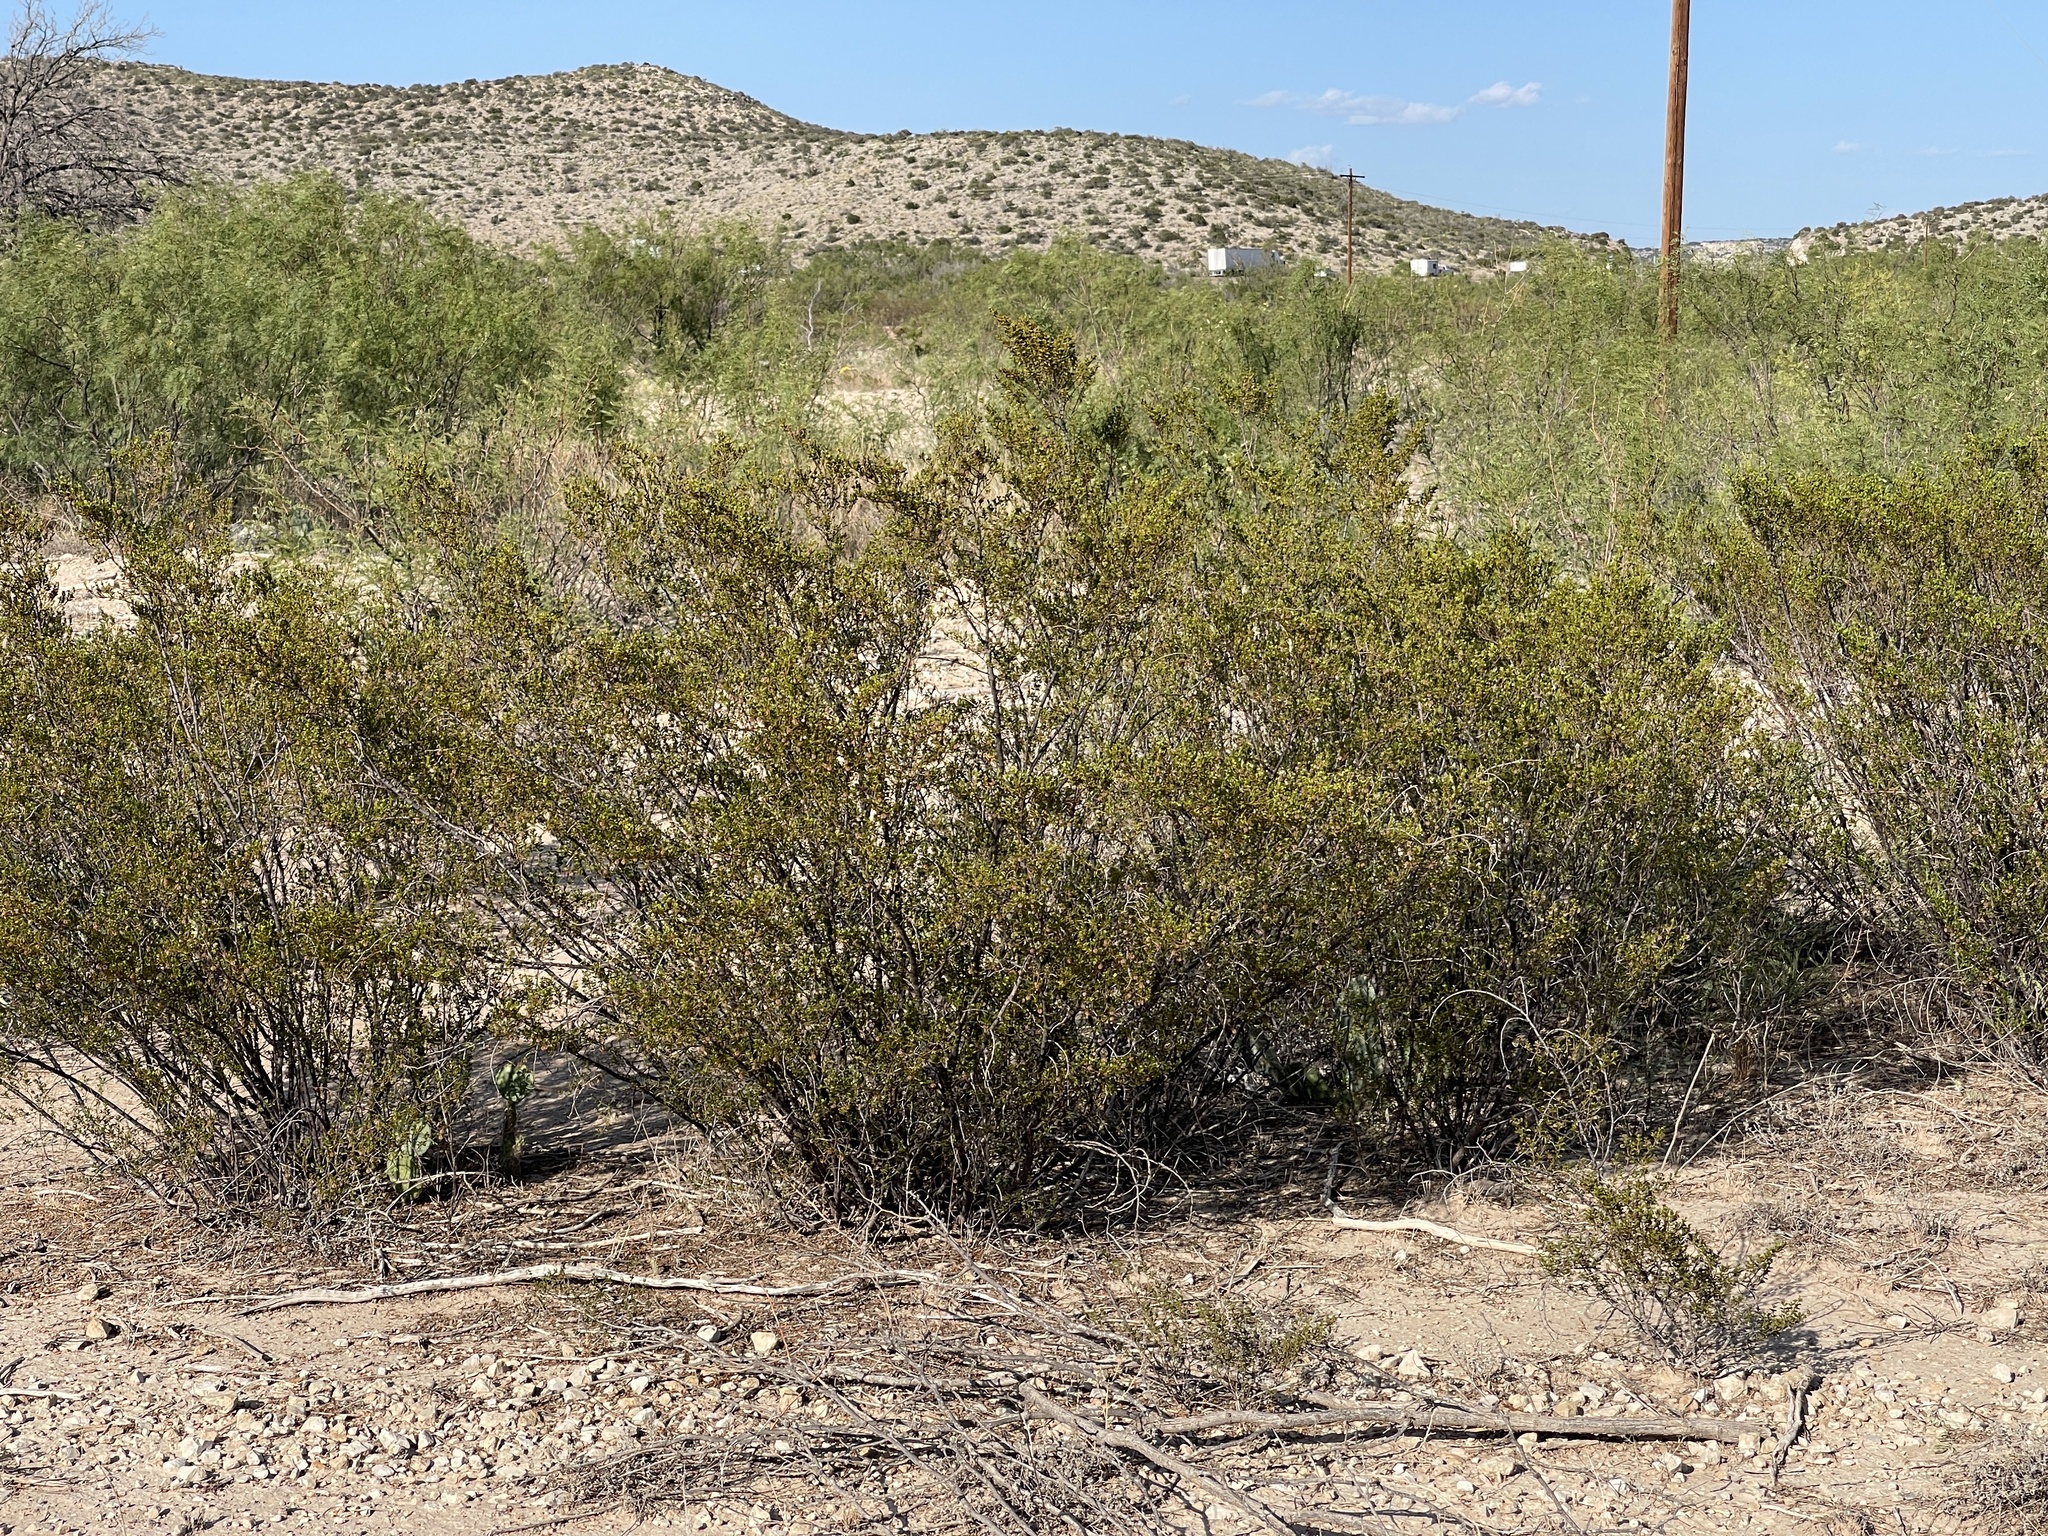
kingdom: Plantae
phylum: Tracheophyta
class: Magnoliopsida
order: Zygophyllales
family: Zygophyllaceae
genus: Larrea
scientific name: Larrea tridentata
